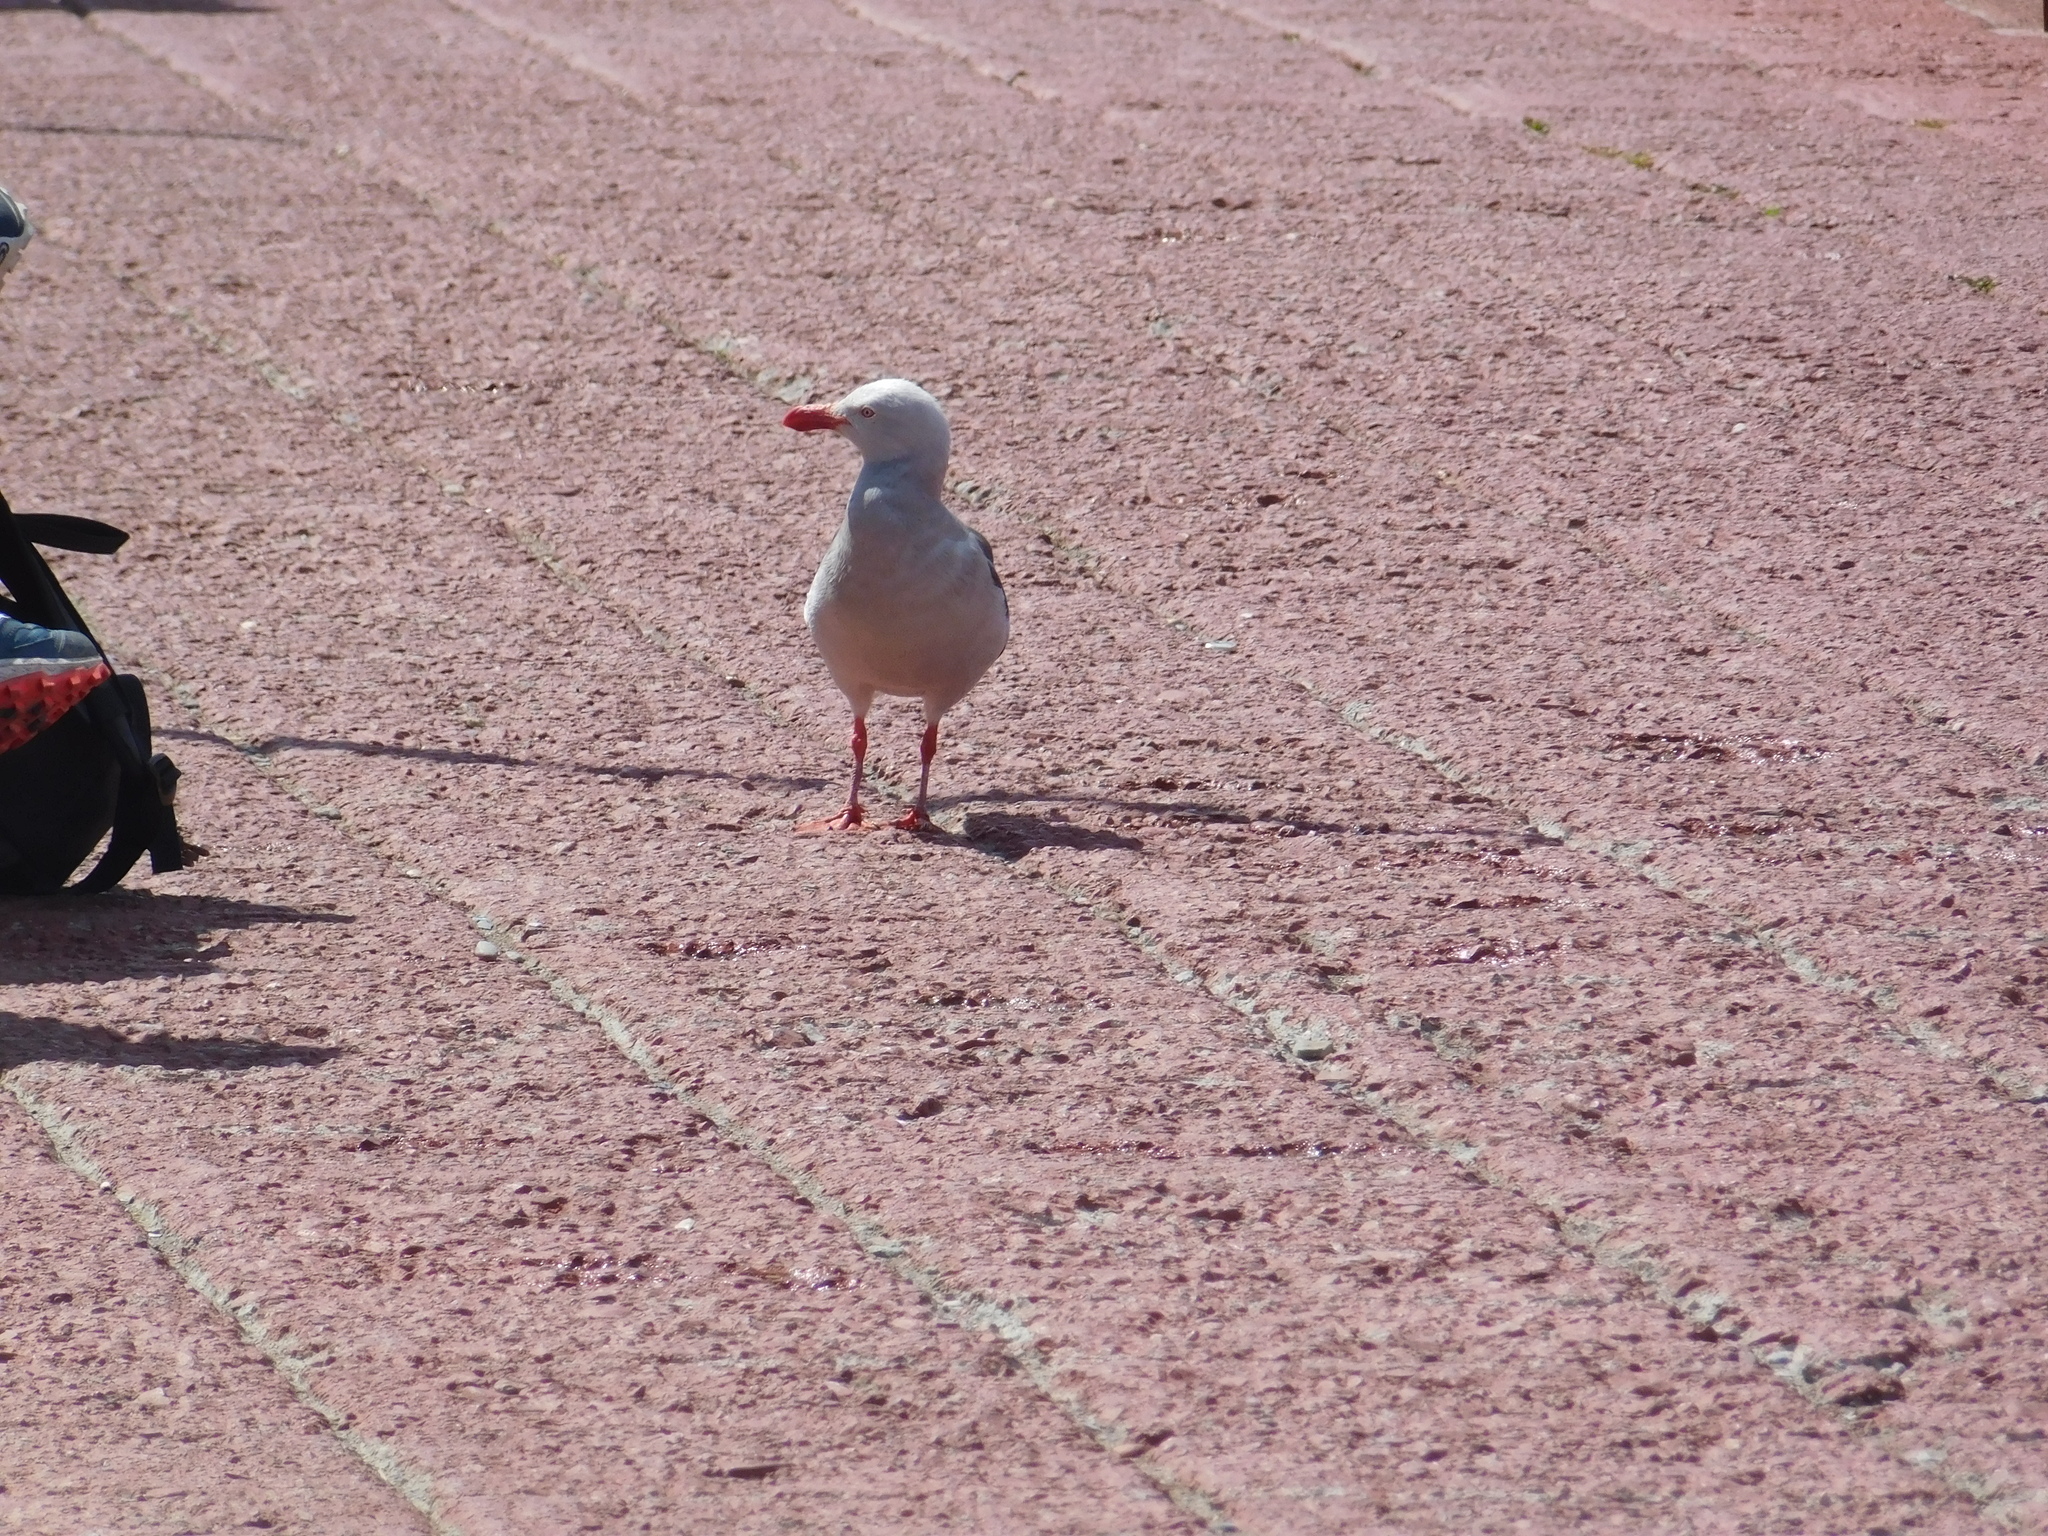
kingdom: Animalia
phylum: Chordata
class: Aves
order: Charadriiformes
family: Laridae
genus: Leucophaeus
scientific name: Leucophaeus scoresbii
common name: Dolphin gull
